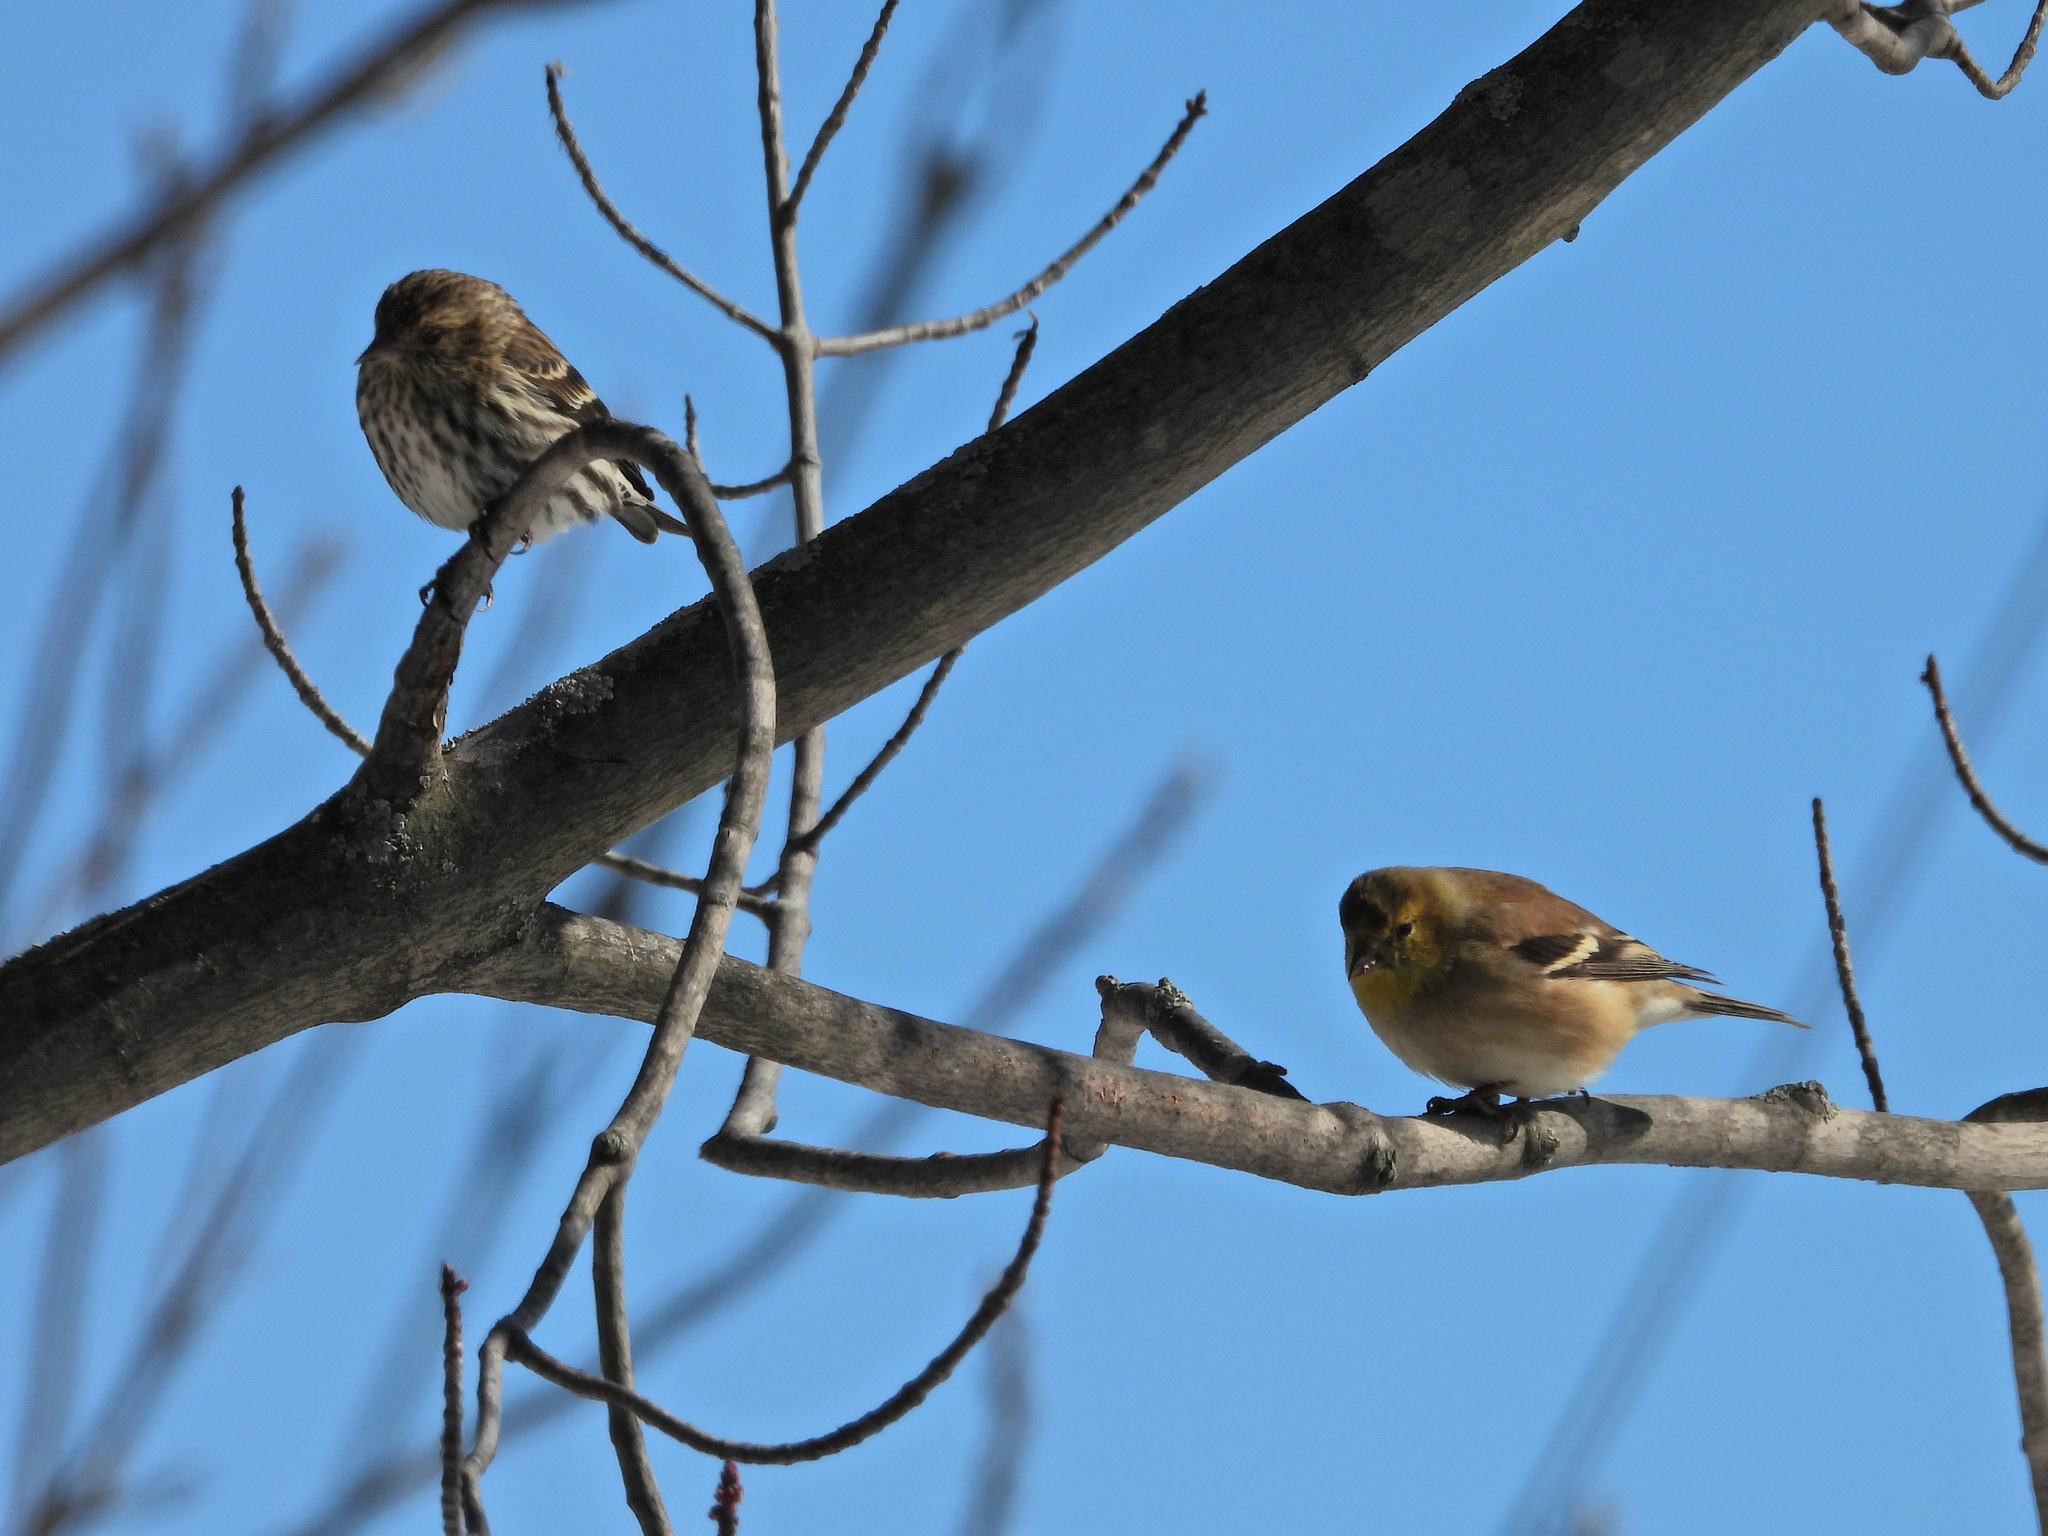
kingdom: Animalia
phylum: Chordata
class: Aves
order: Passeriformes
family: Fringillidae
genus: Spinus
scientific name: Spinus pinus
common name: Pine siskin
